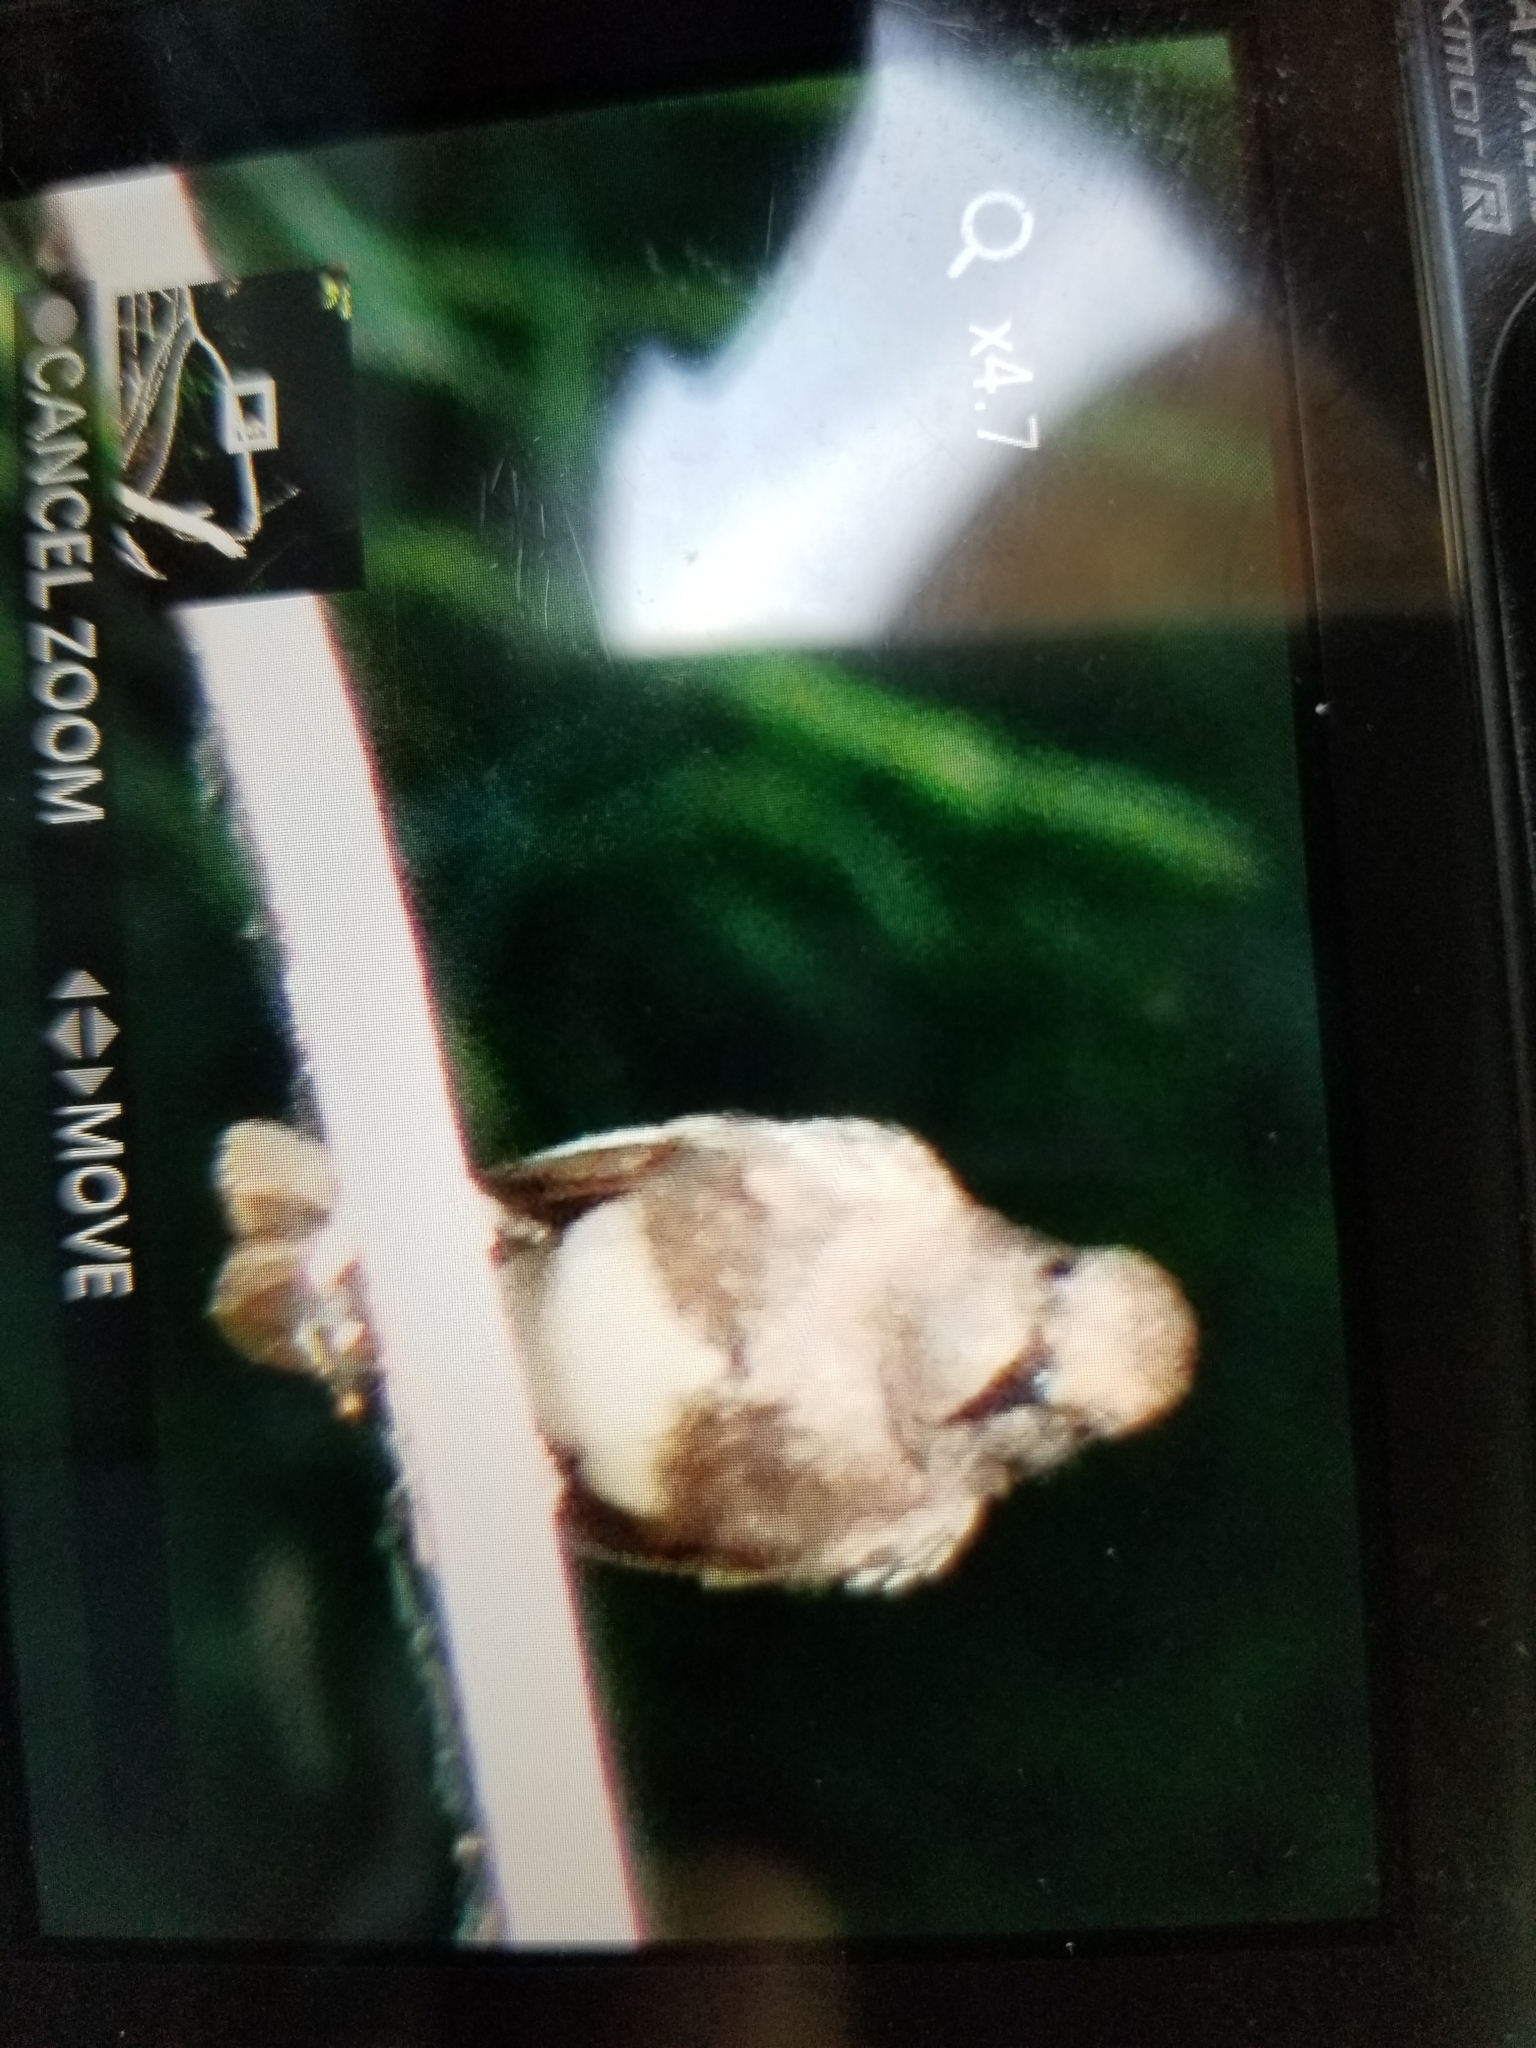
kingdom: Animalia
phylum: Chordata
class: Aves
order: Passeriformes
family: Tyrannidae
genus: Sayornis
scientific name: Sayornis nigricans
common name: Black phoebe
